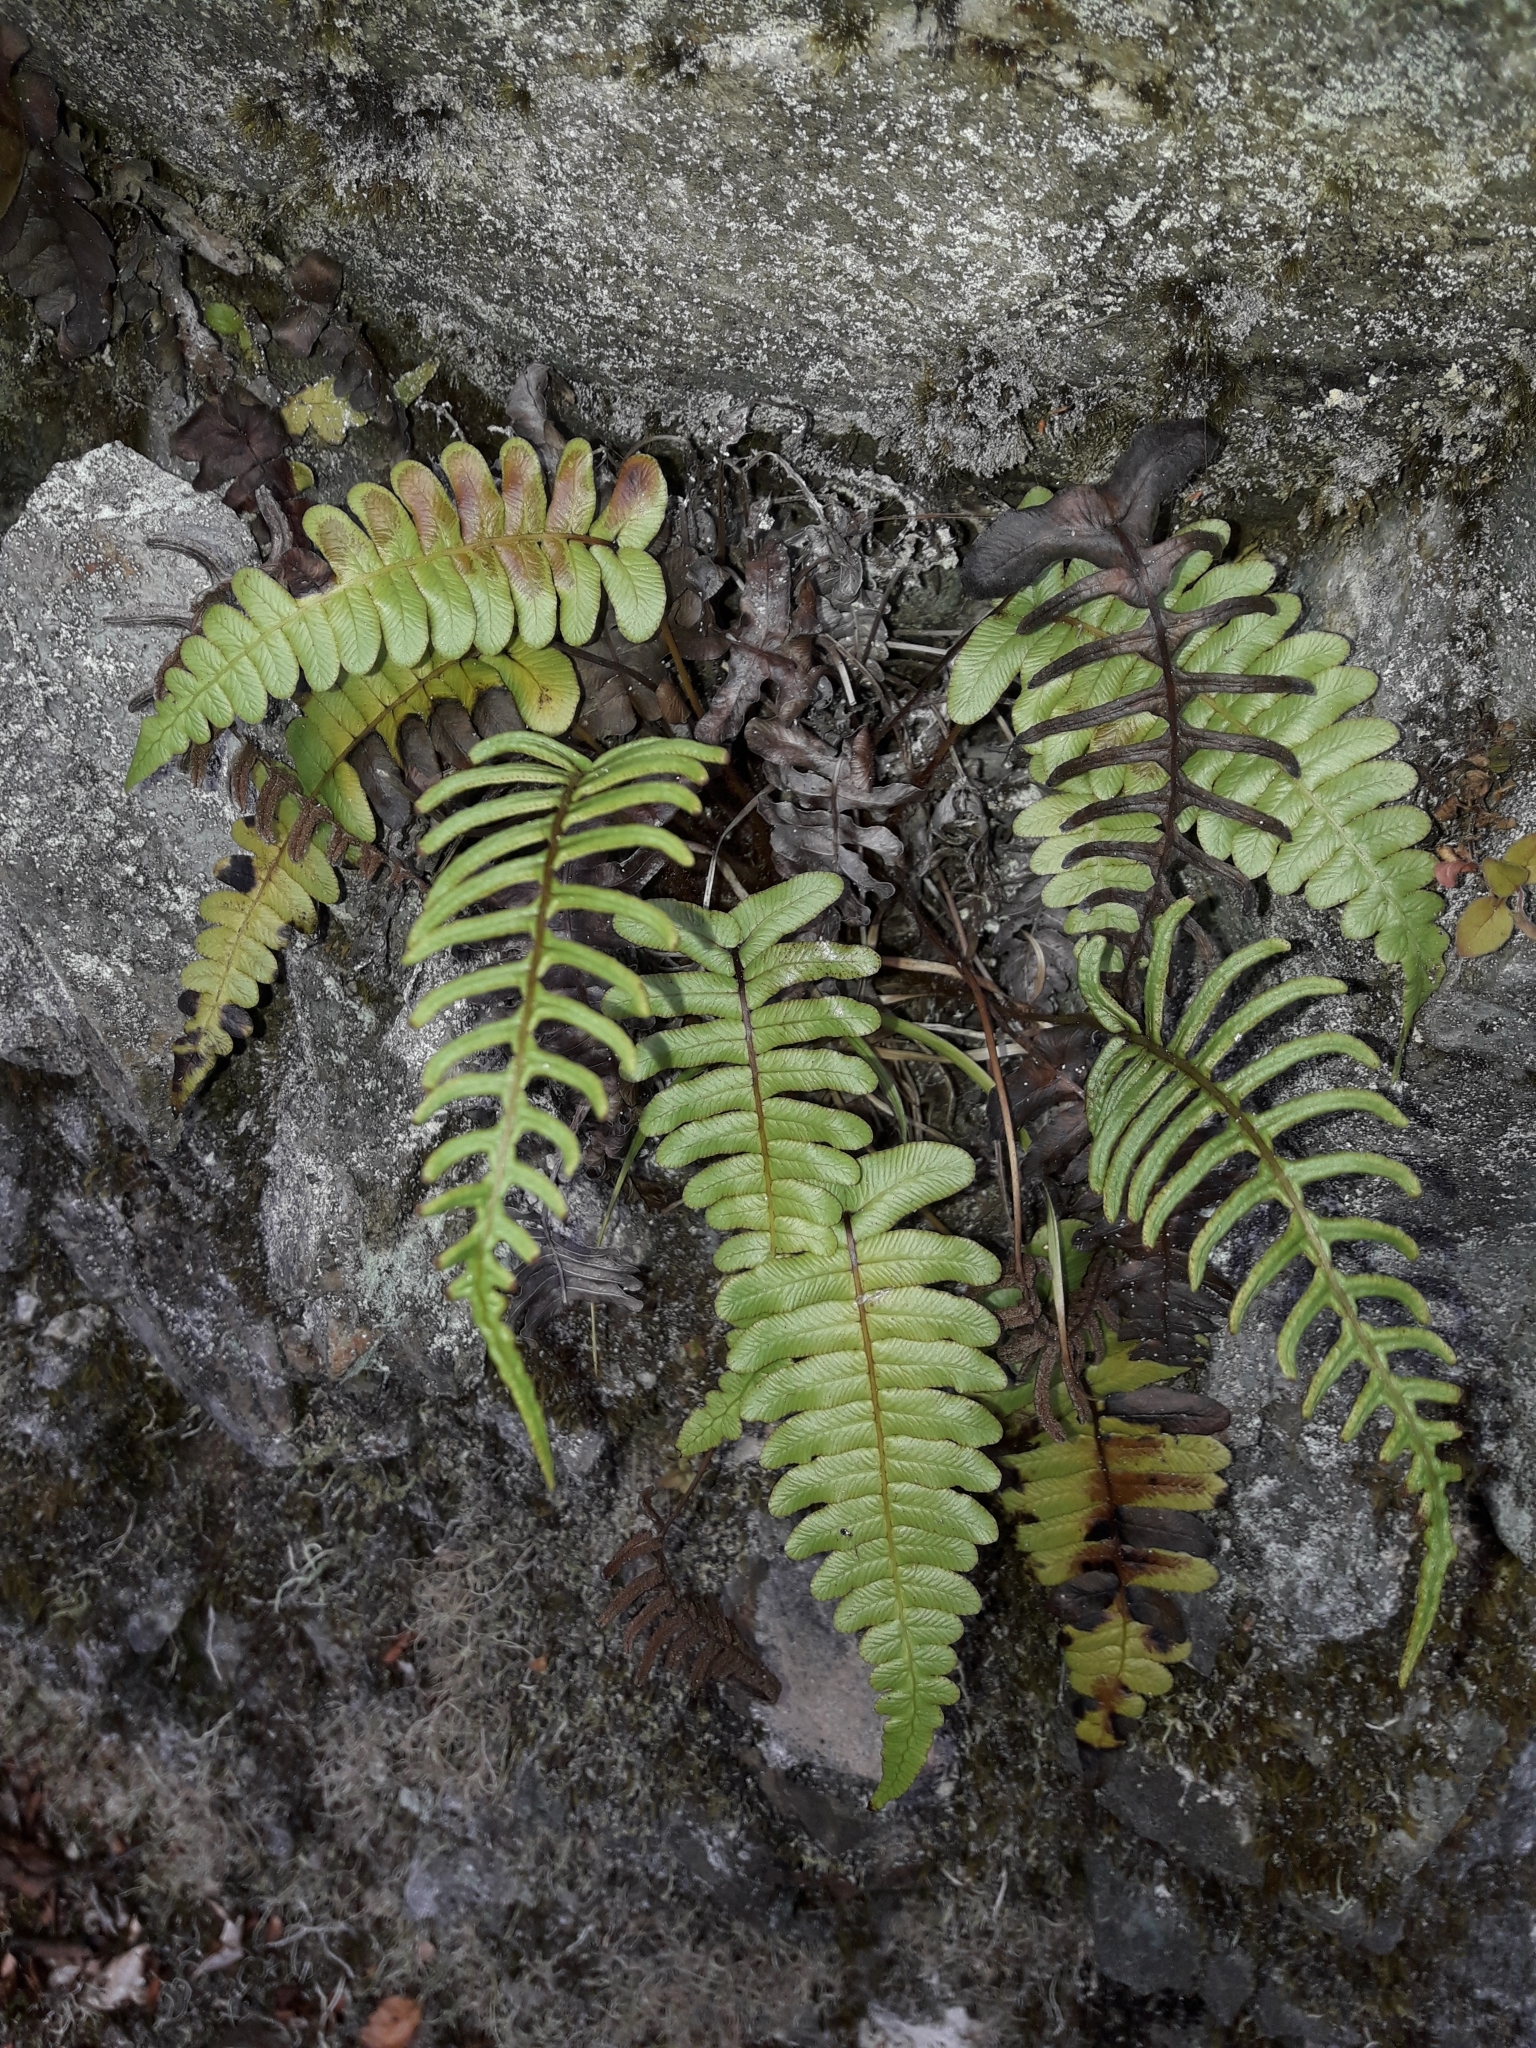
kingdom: Plantae
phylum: Tracheophyta
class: Polypodiopsida
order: Polypodiales
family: Blechnaceae
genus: Cranfillia
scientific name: Cranfillia deltoides
